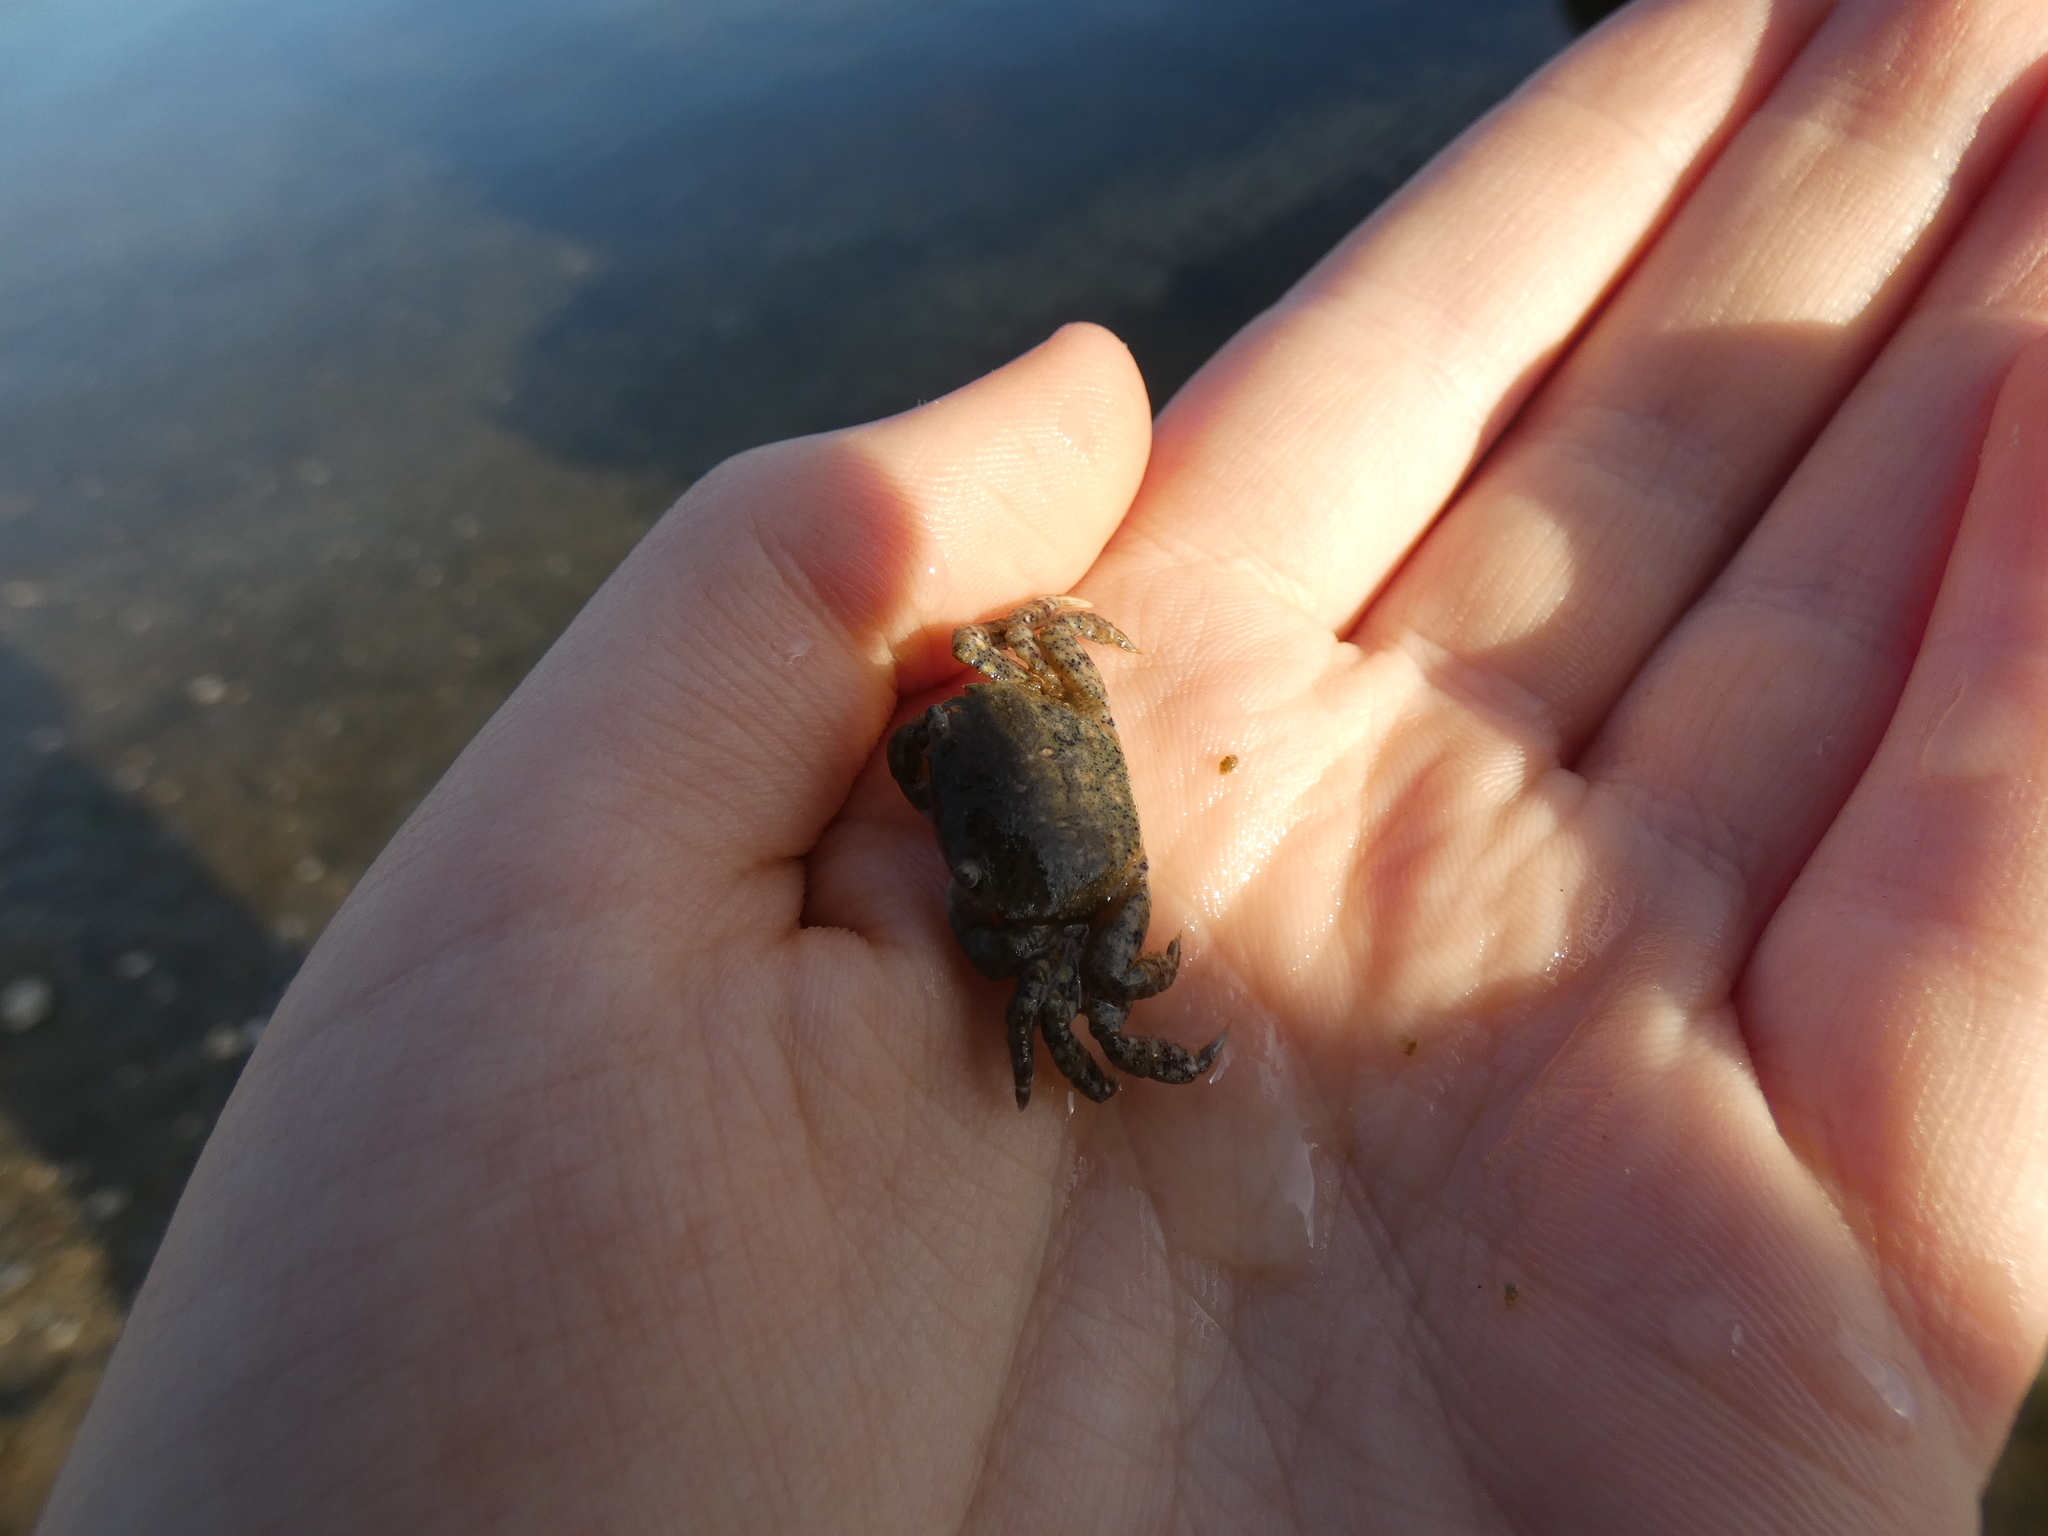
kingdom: Animalia
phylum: Arthropoda
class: Malacostraca
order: Decapoda
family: Varunidae
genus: Hemigrapsus
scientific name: Hemigrapsus oregonensis
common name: Yellow shore crab
